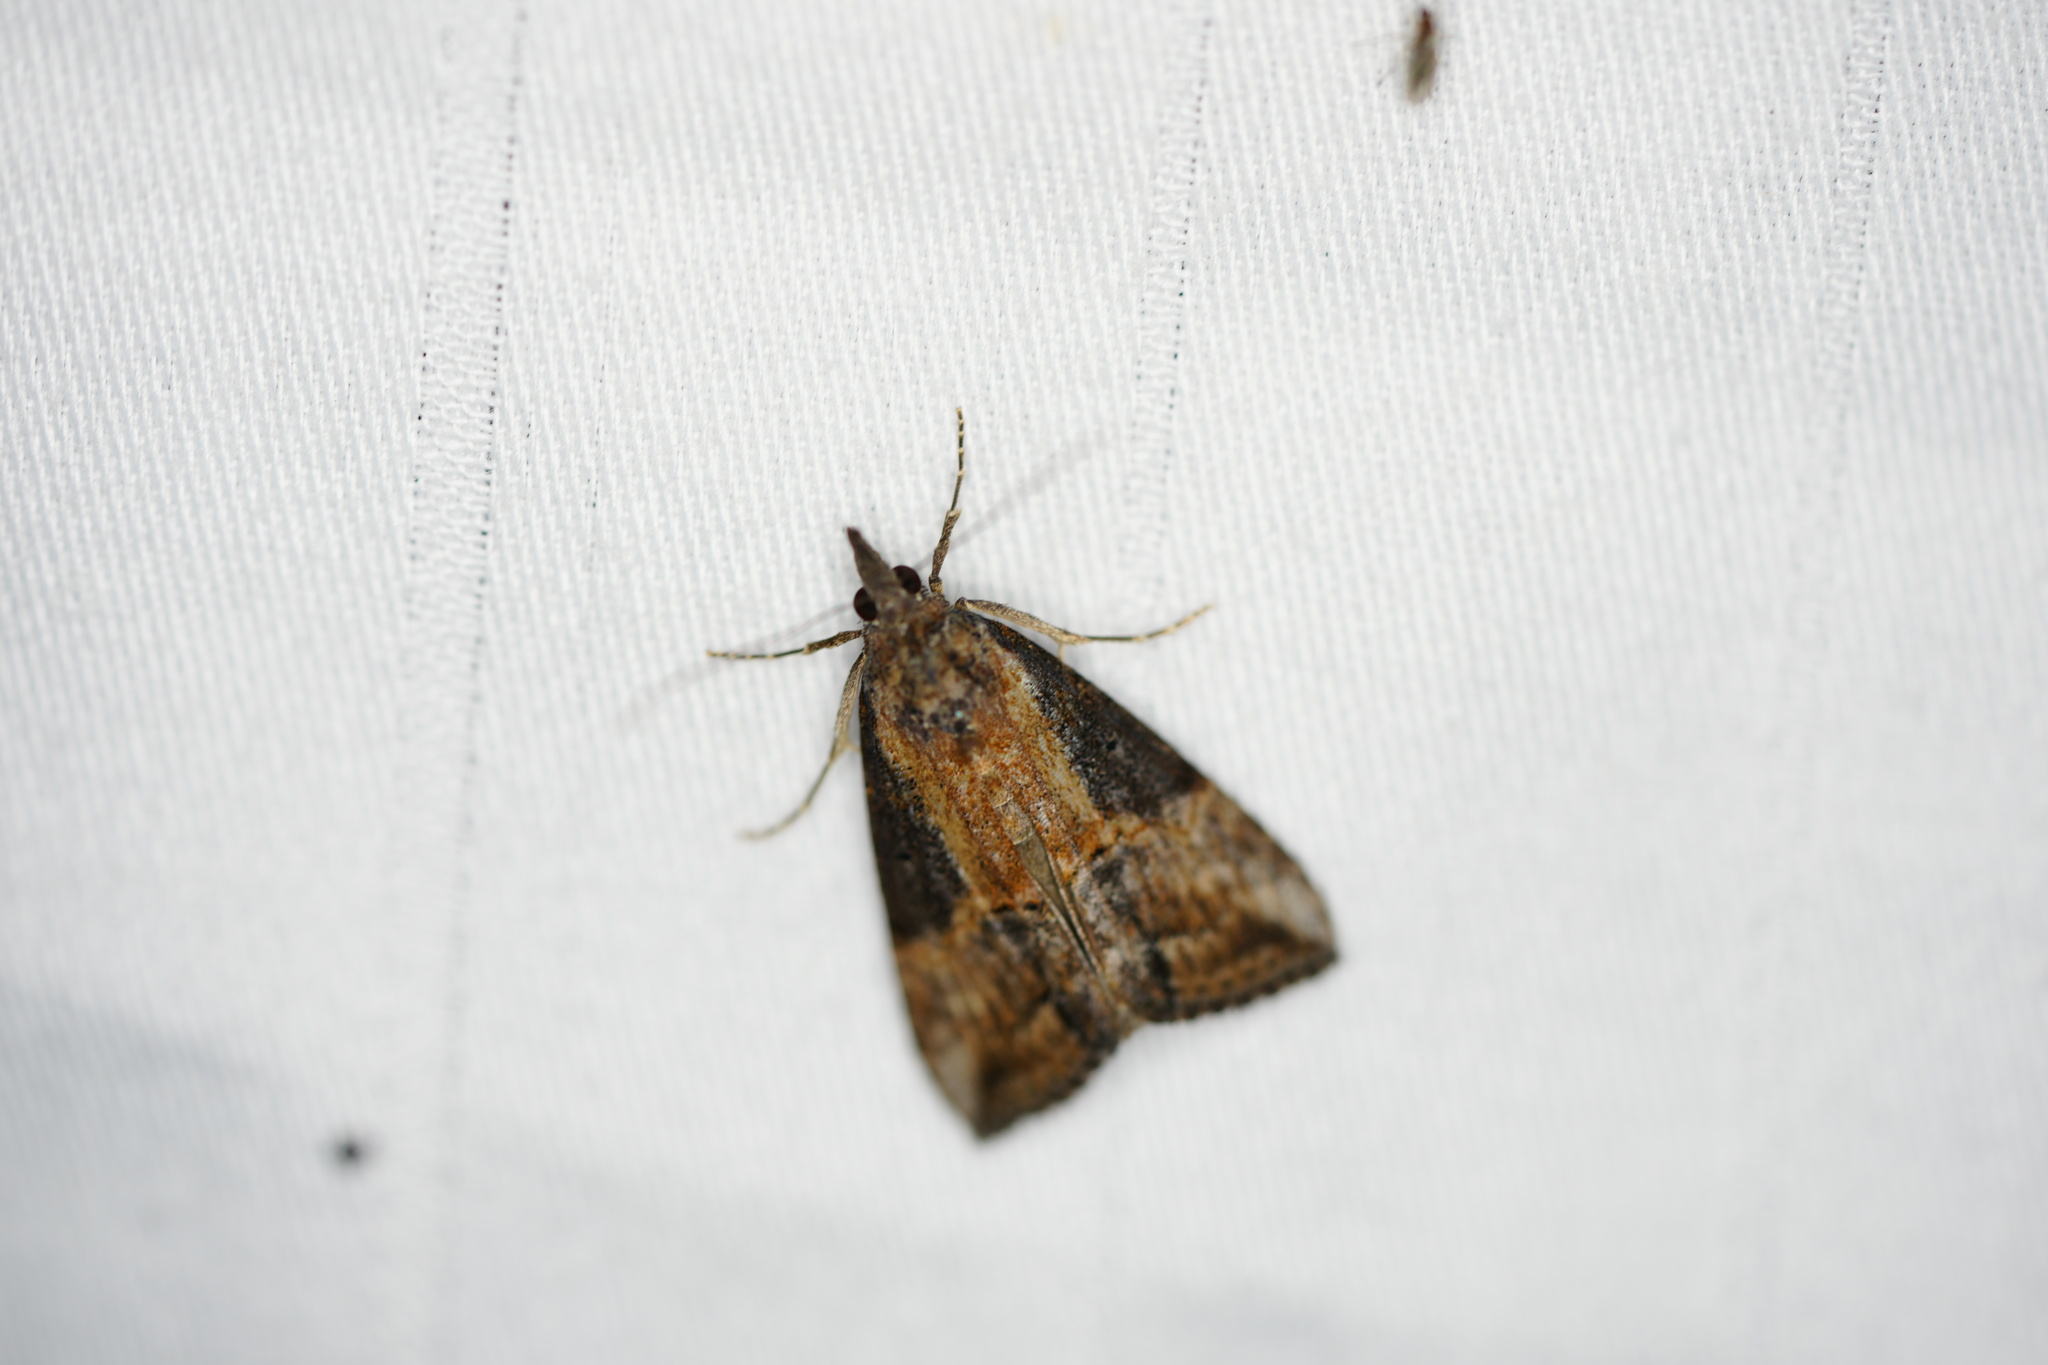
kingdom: Animalia
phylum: Arthropoda
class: Insecta
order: Lepidoptera
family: Erebidae
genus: Hypena
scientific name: Hypena scabra
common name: Green cloverworm
